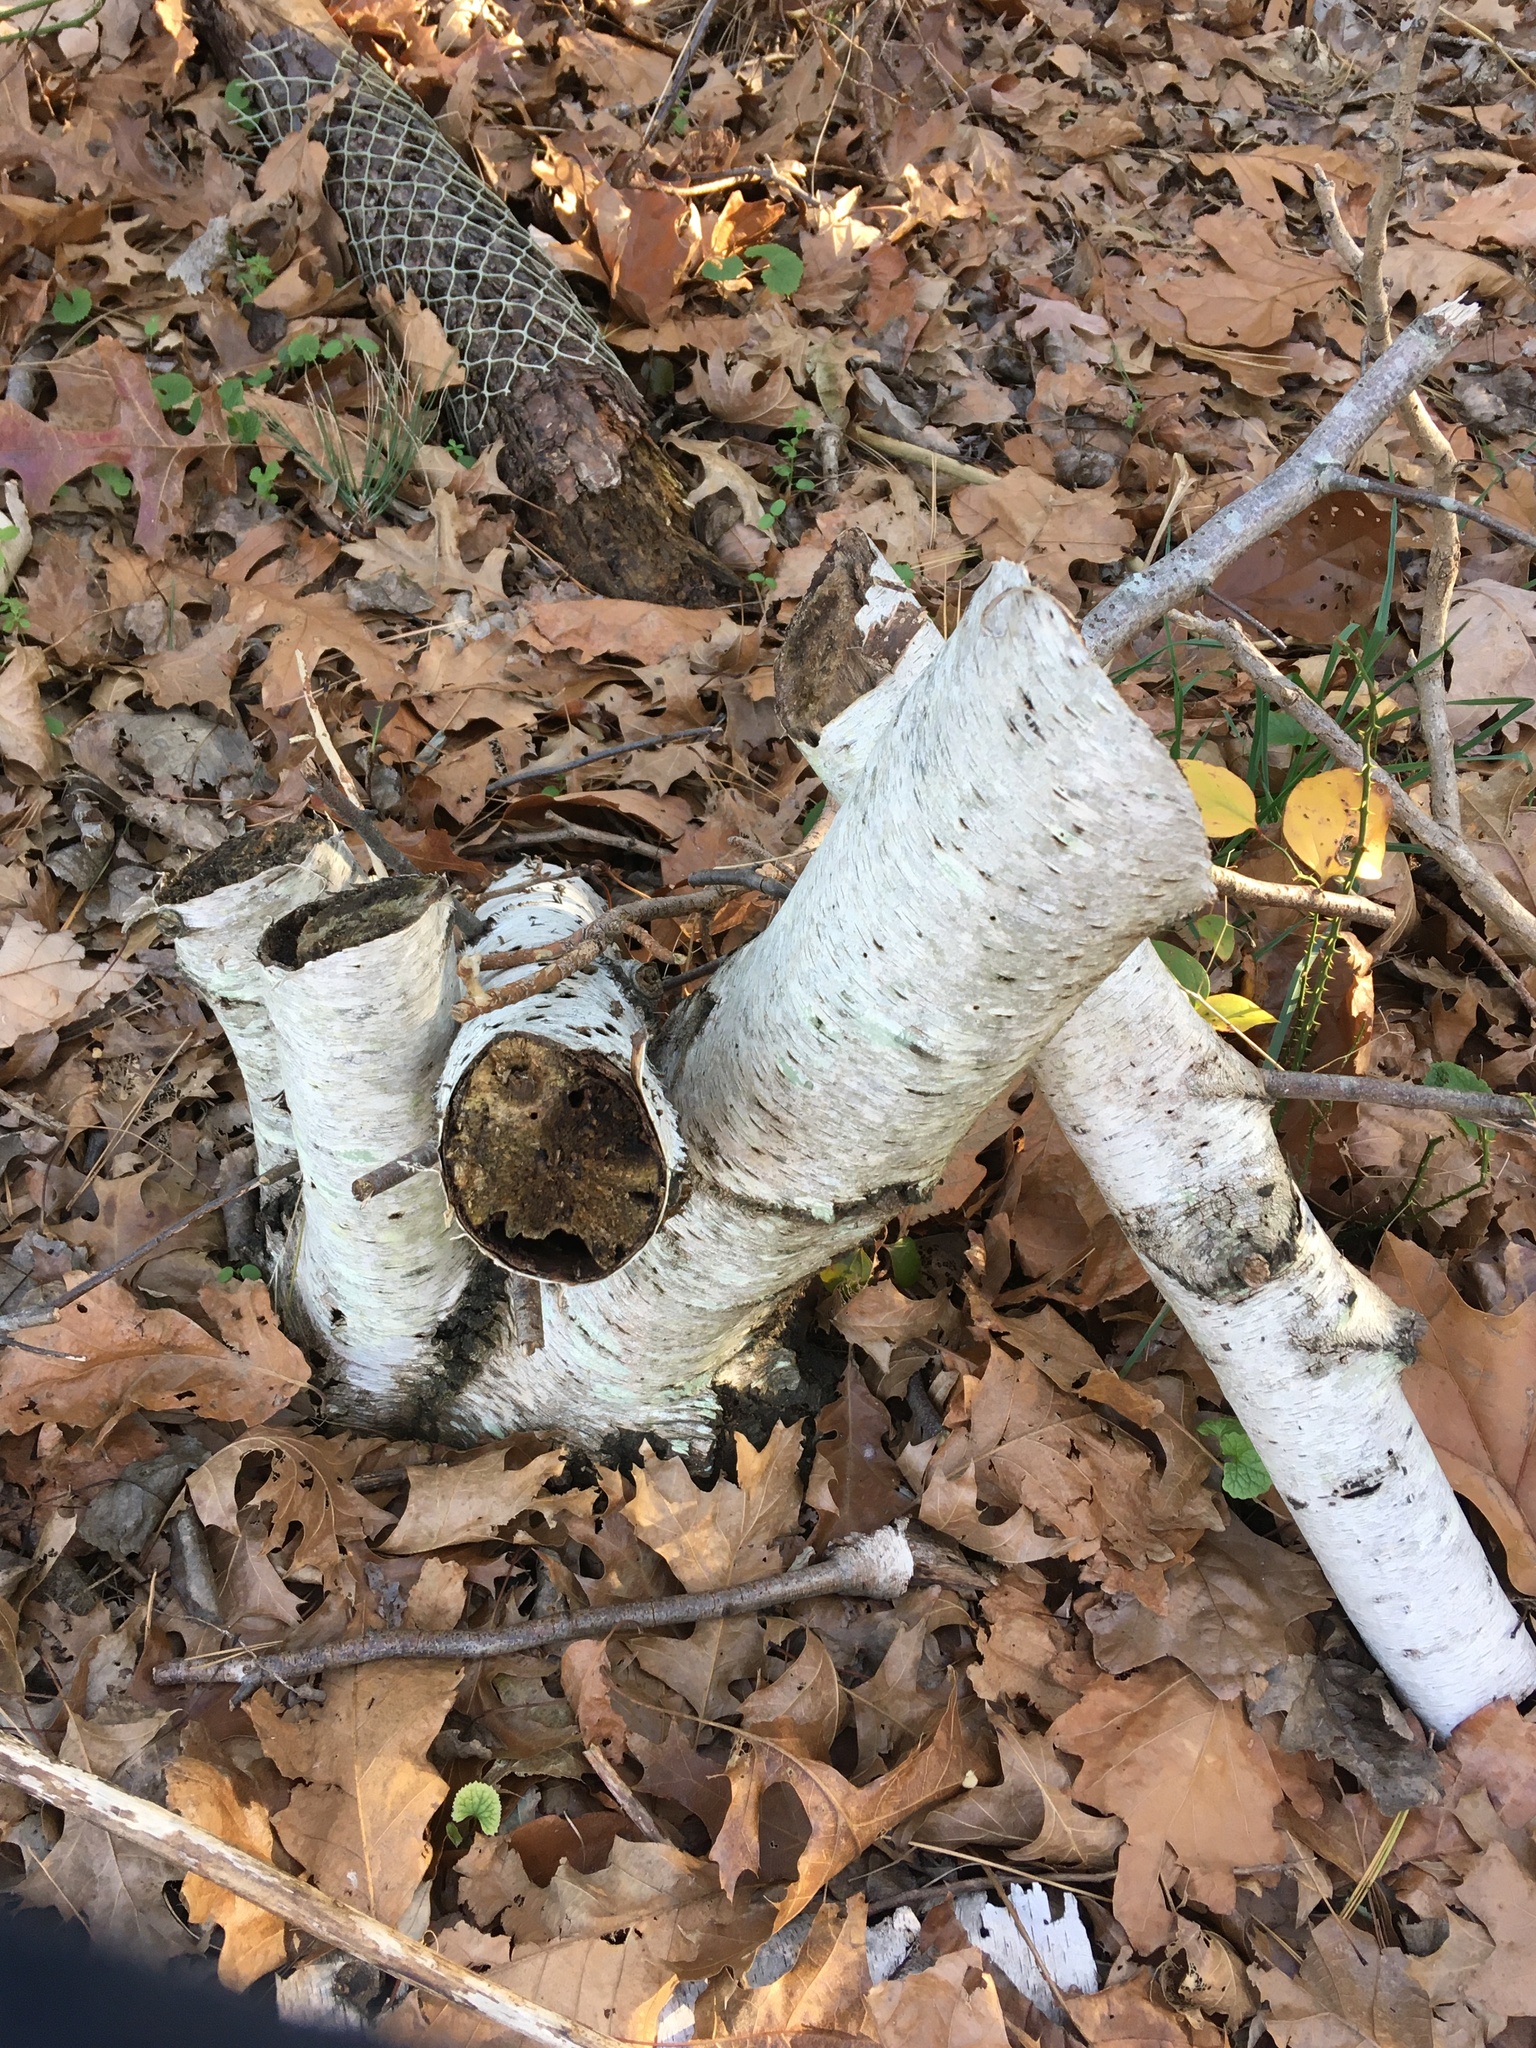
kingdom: Plantae
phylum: Tracheophyta
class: Magnoliopsida
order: Fagales
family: Betulaceae
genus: Betula
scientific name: Betula populifolia
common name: Fire birch
